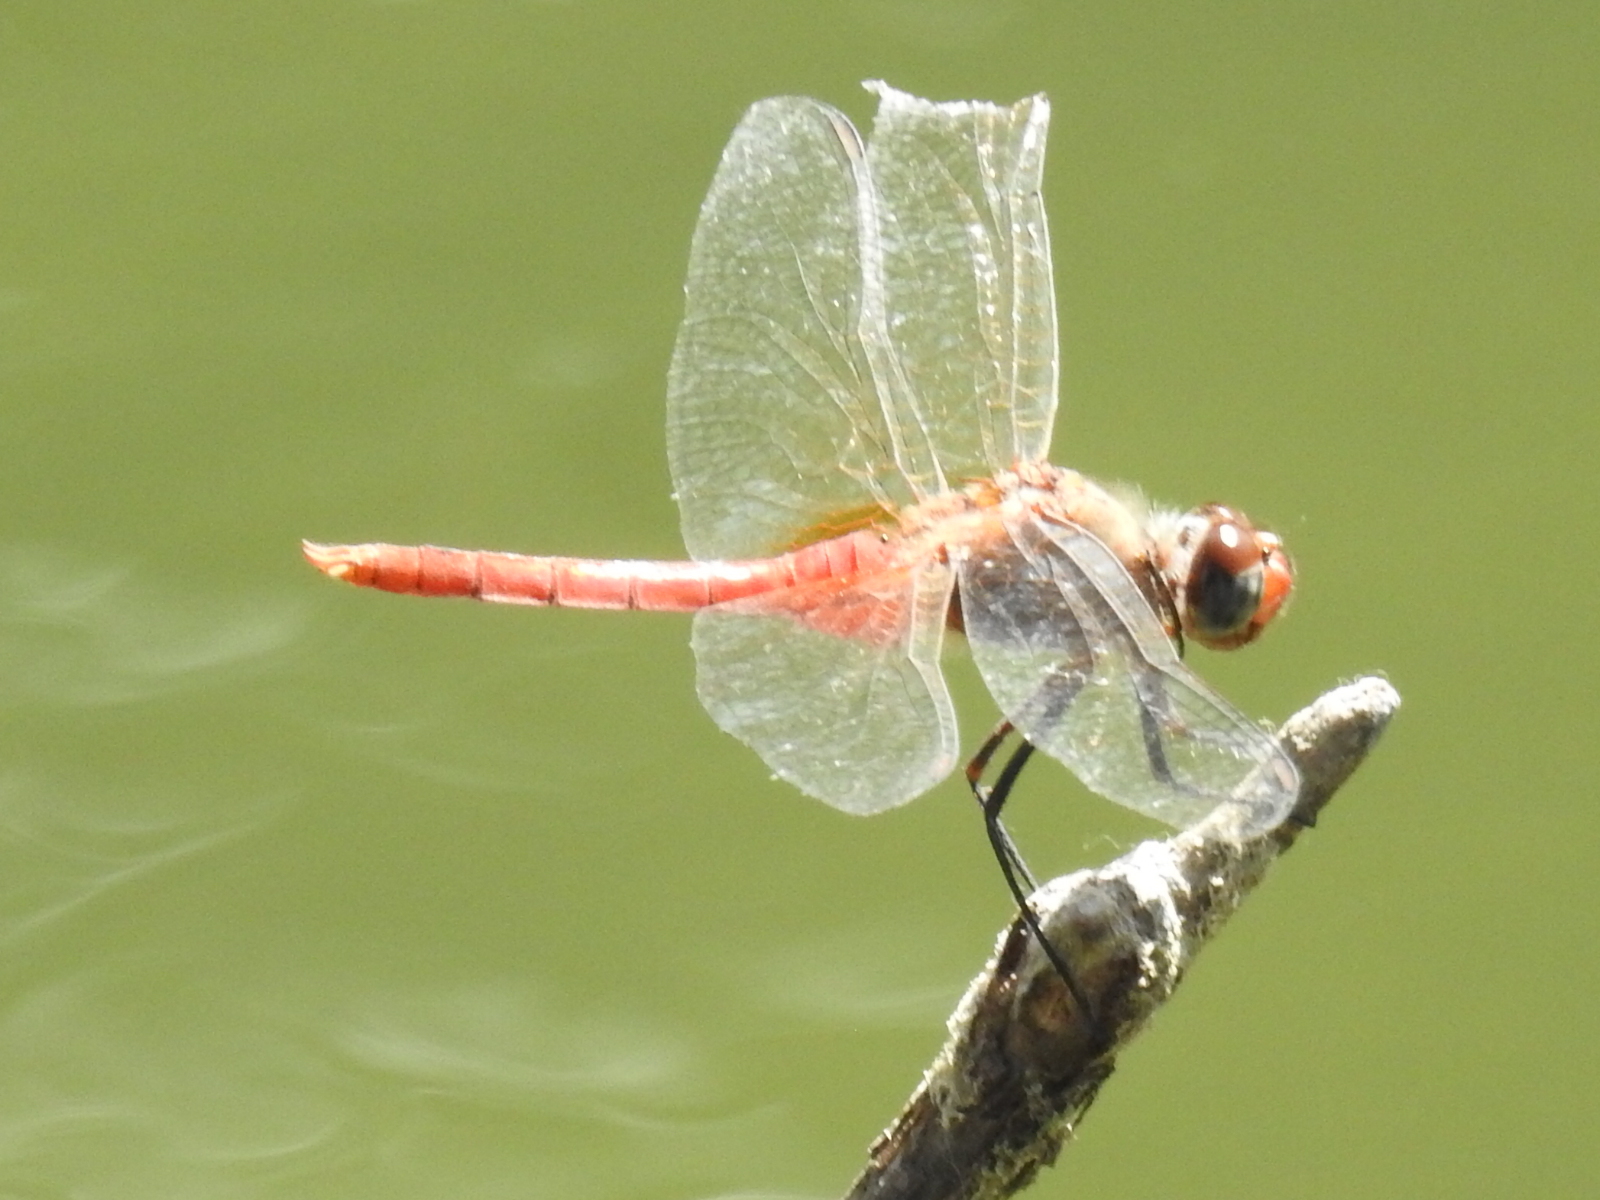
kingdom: Animalia
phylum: Arthropoda
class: Insecta
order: Odonata
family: Libellulidae
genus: Brachymesia
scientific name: Brachymesia furcata
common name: Red-taled pennant
